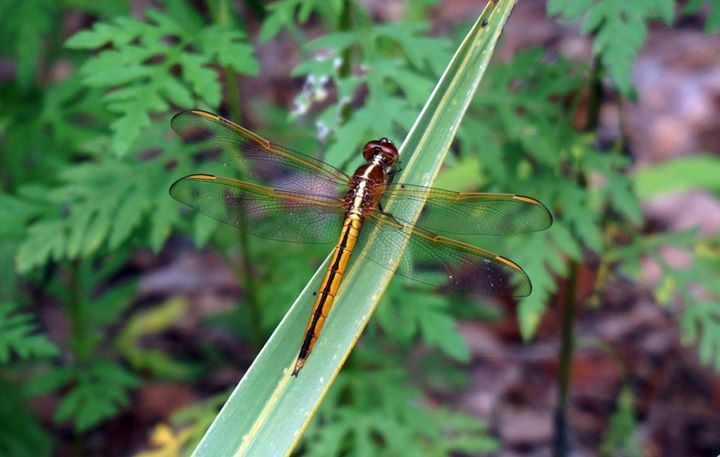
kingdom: Animalia
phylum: Arthropoda
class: Insecta
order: Odonata
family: Libellulidae
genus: Libellula
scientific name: Libellula needhami
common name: Needham's skimmer
